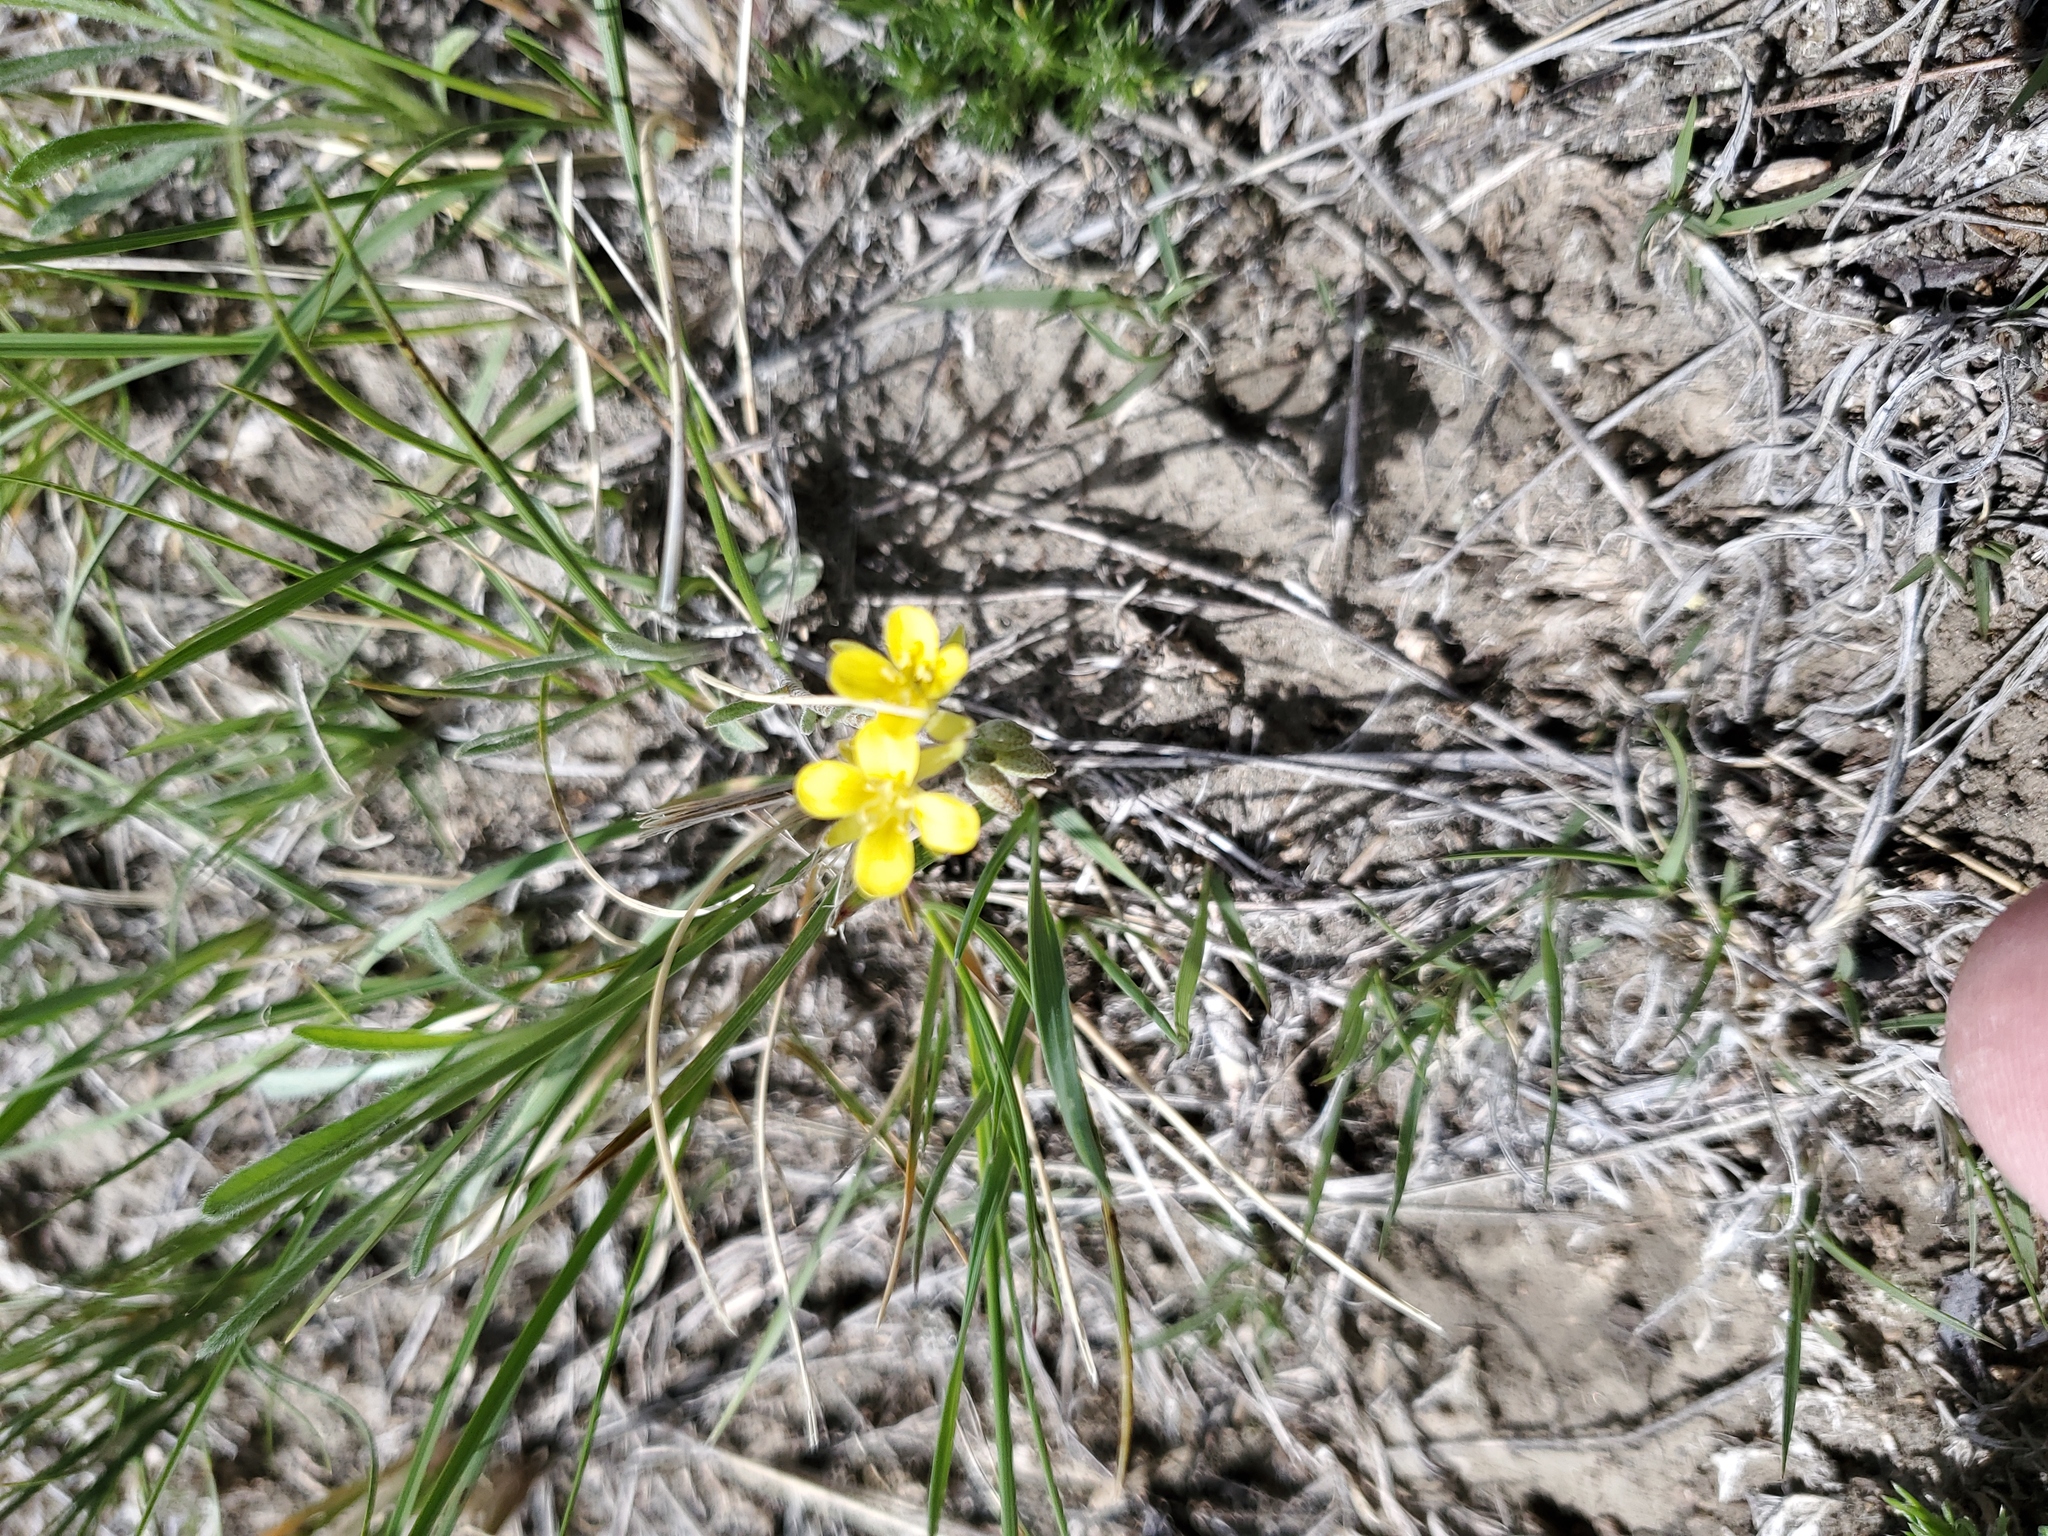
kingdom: Plantae
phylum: Tracheophyta
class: Magnoliopsida
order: Brassicales
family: Brassicaceae
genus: Physaria
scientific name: Physaria arenosa
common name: Great plains bladderpod
